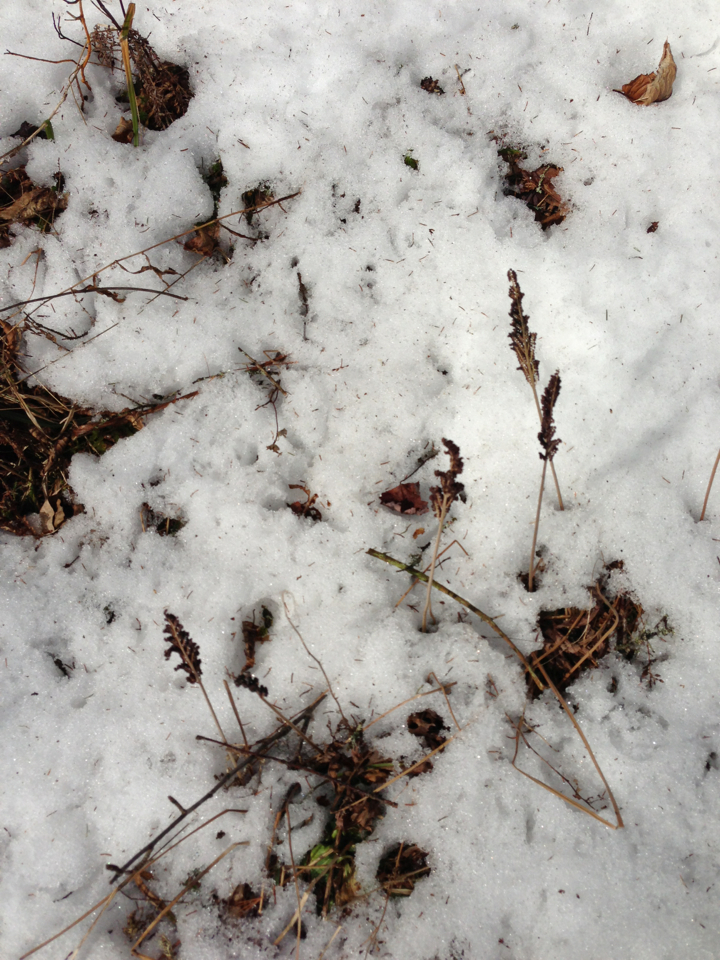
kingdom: Plantae
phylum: Tracheophyta
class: Polypodiopsida
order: Polypodiales
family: Onocleaceae
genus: Onoclea
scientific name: Onoclea sensibilis
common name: Sensitive fern
